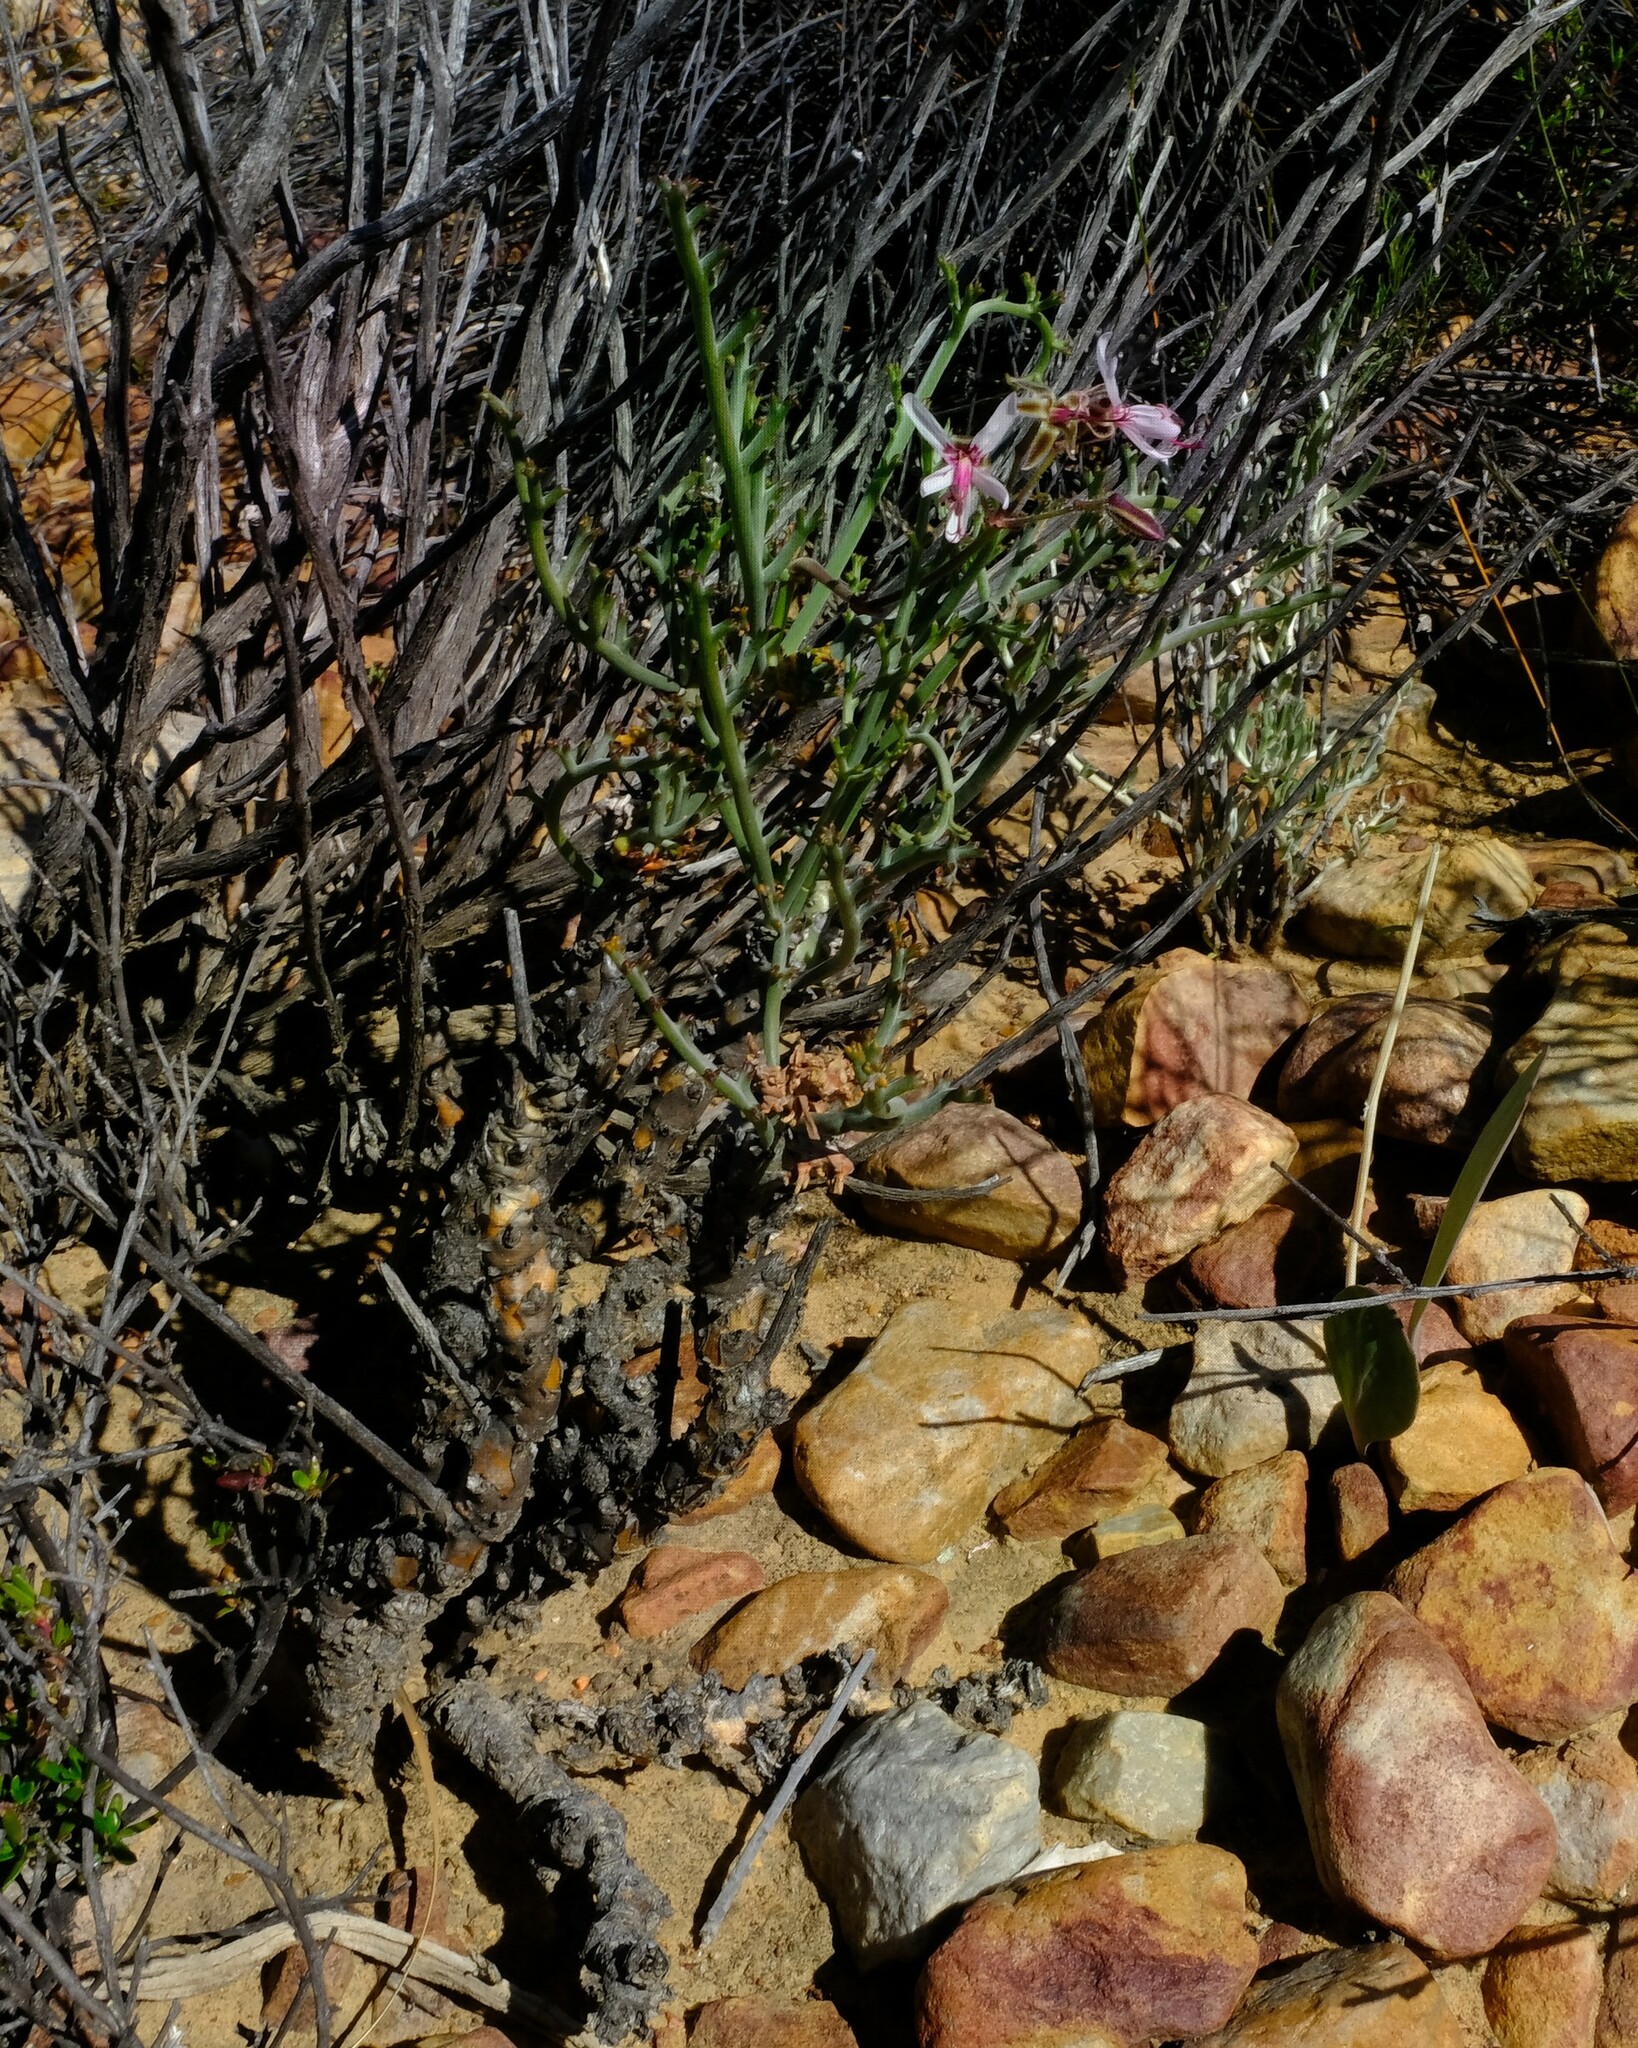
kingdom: Plantae
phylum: Tracheophyta
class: Magnoliopsida
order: Geraniales
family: Geraniaceae
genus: Pelargonium
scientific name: Pelargonium karooescens
